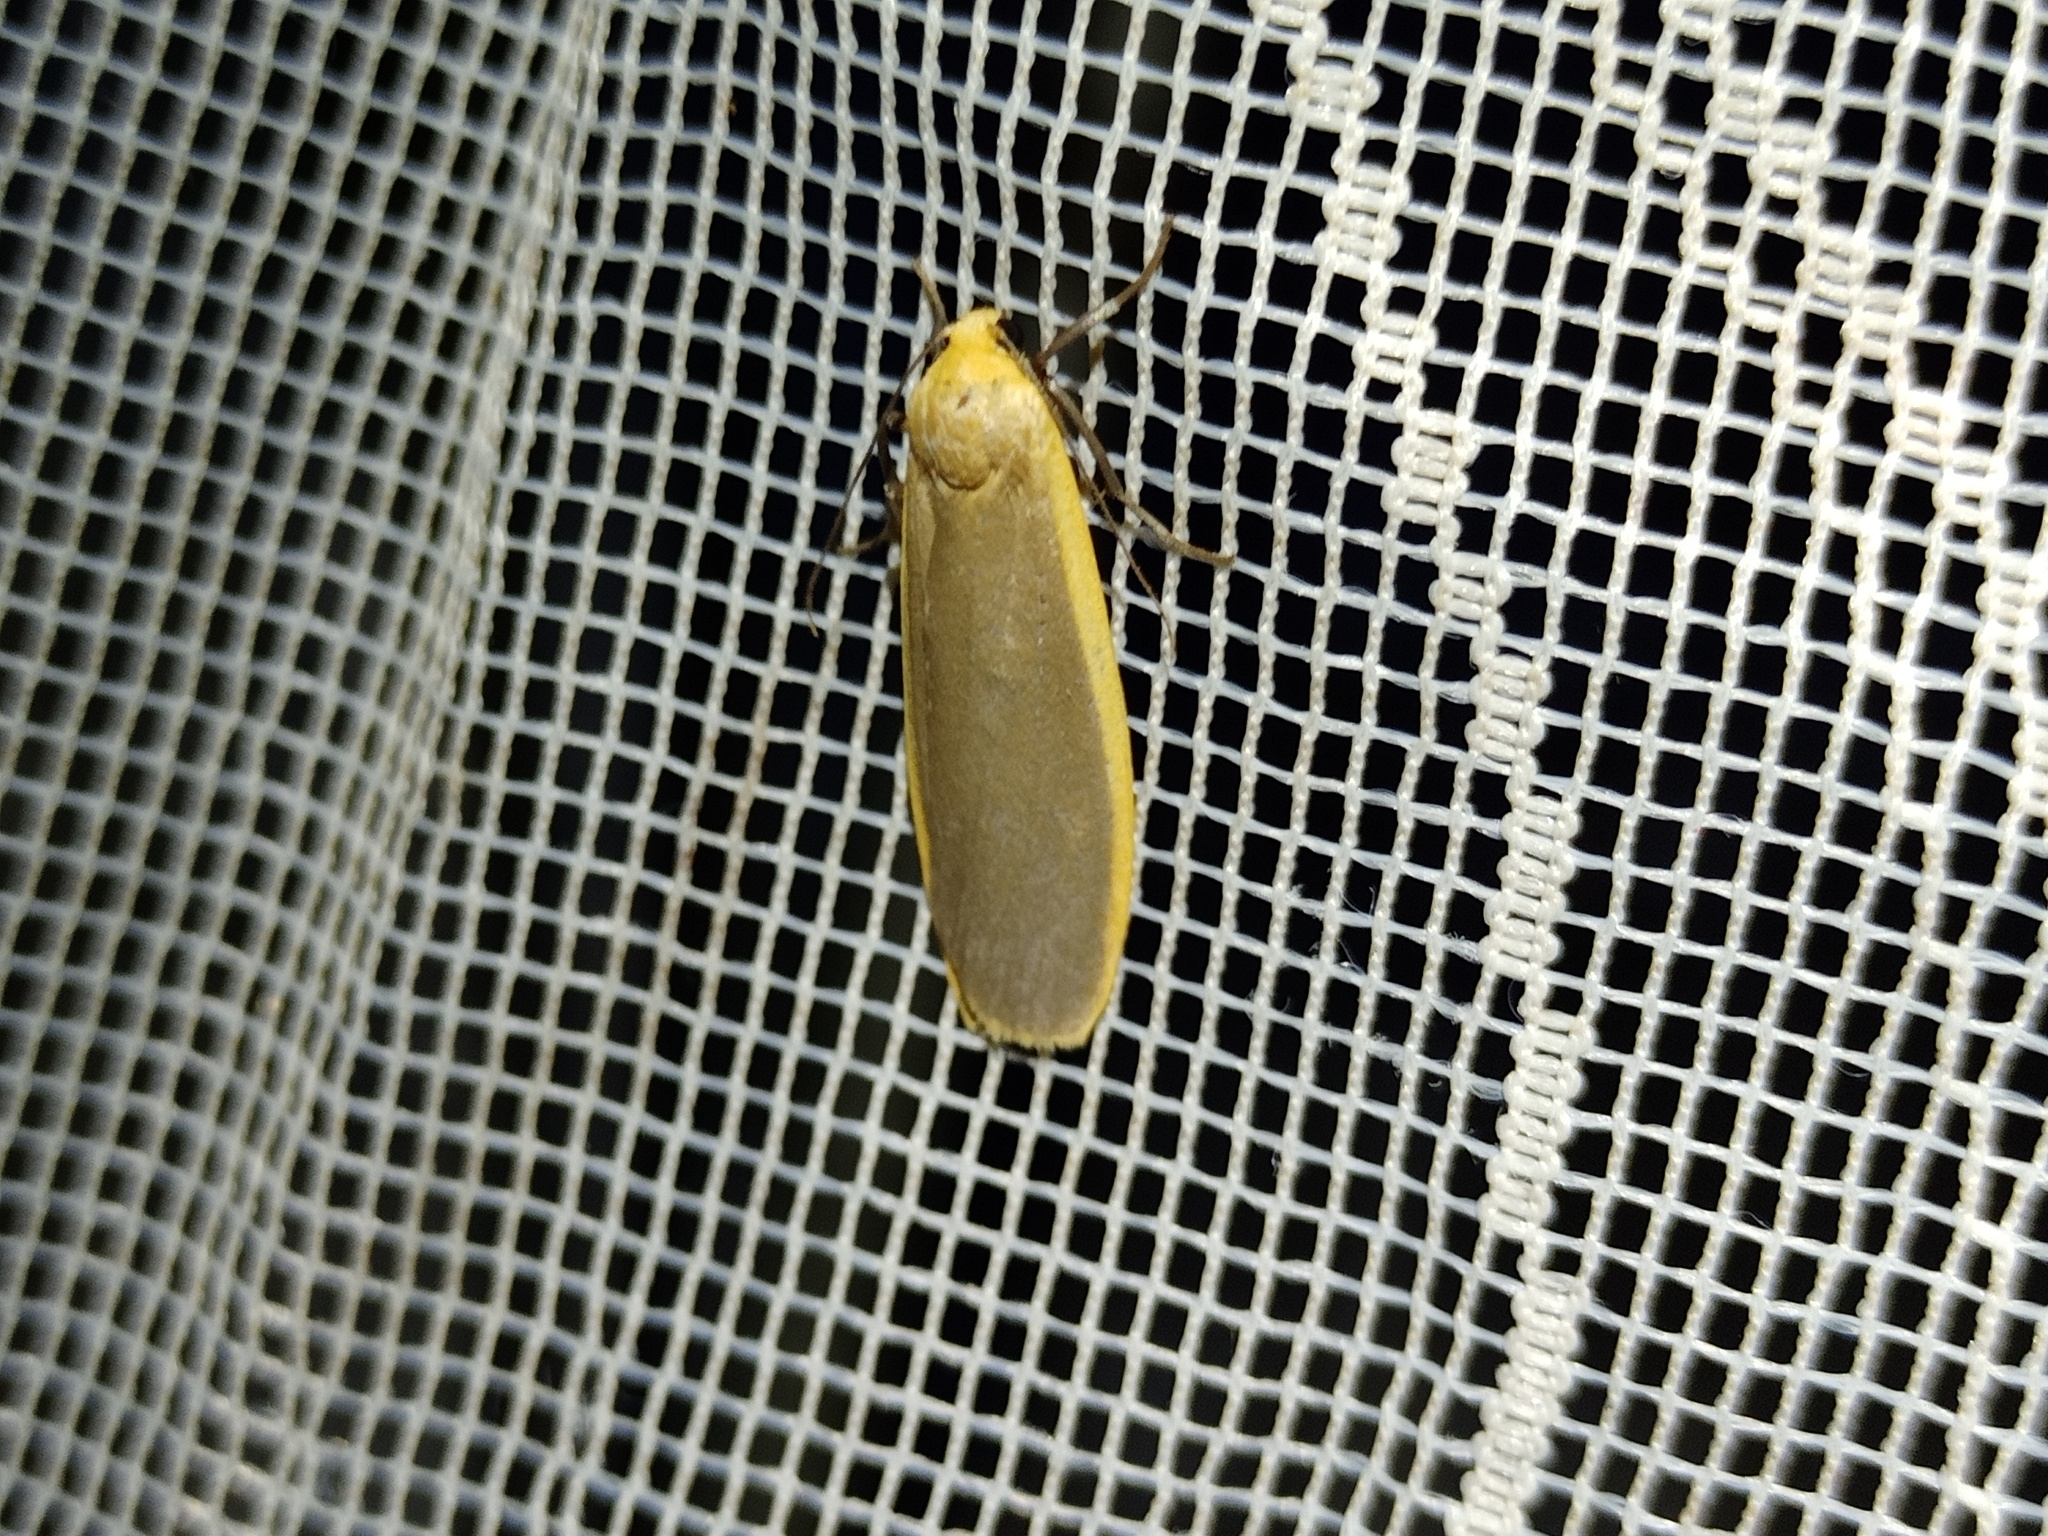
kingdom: Animalia
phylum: Arthropoda
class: Insecta
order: Lepidoptera
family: Erebidae
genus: Katha
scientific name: Katha depressa
